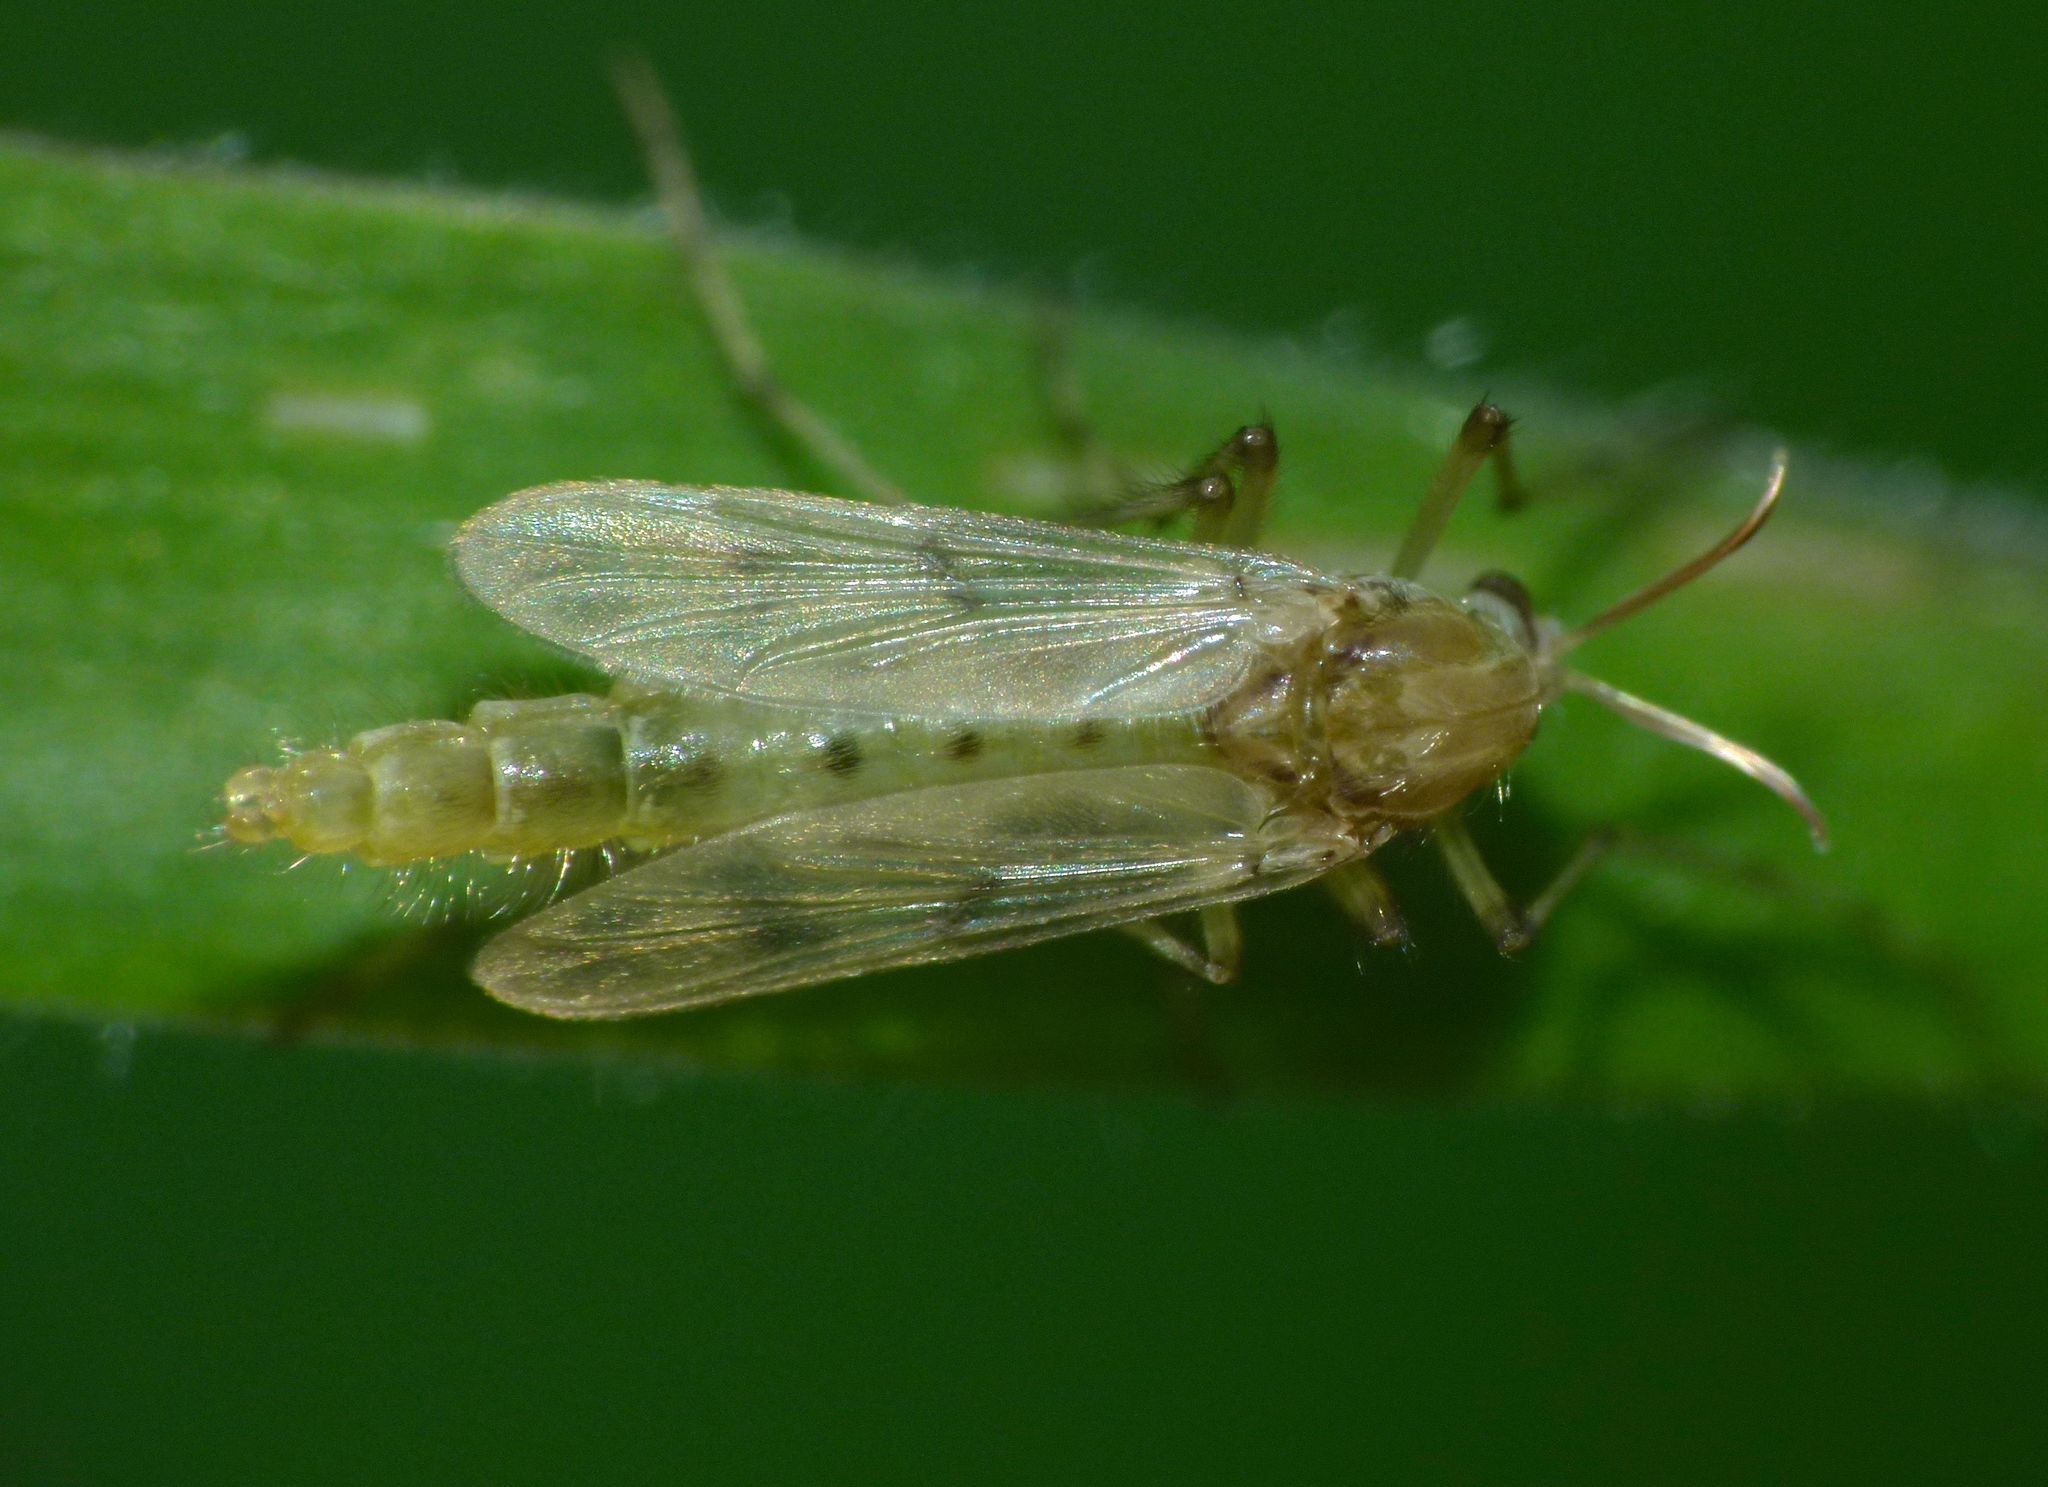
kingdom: Animalia
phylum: Arthropoda
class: Insecta
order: Diptera
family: Chironomidae
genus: Polypedilum
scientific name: Polypedilum pavidus
